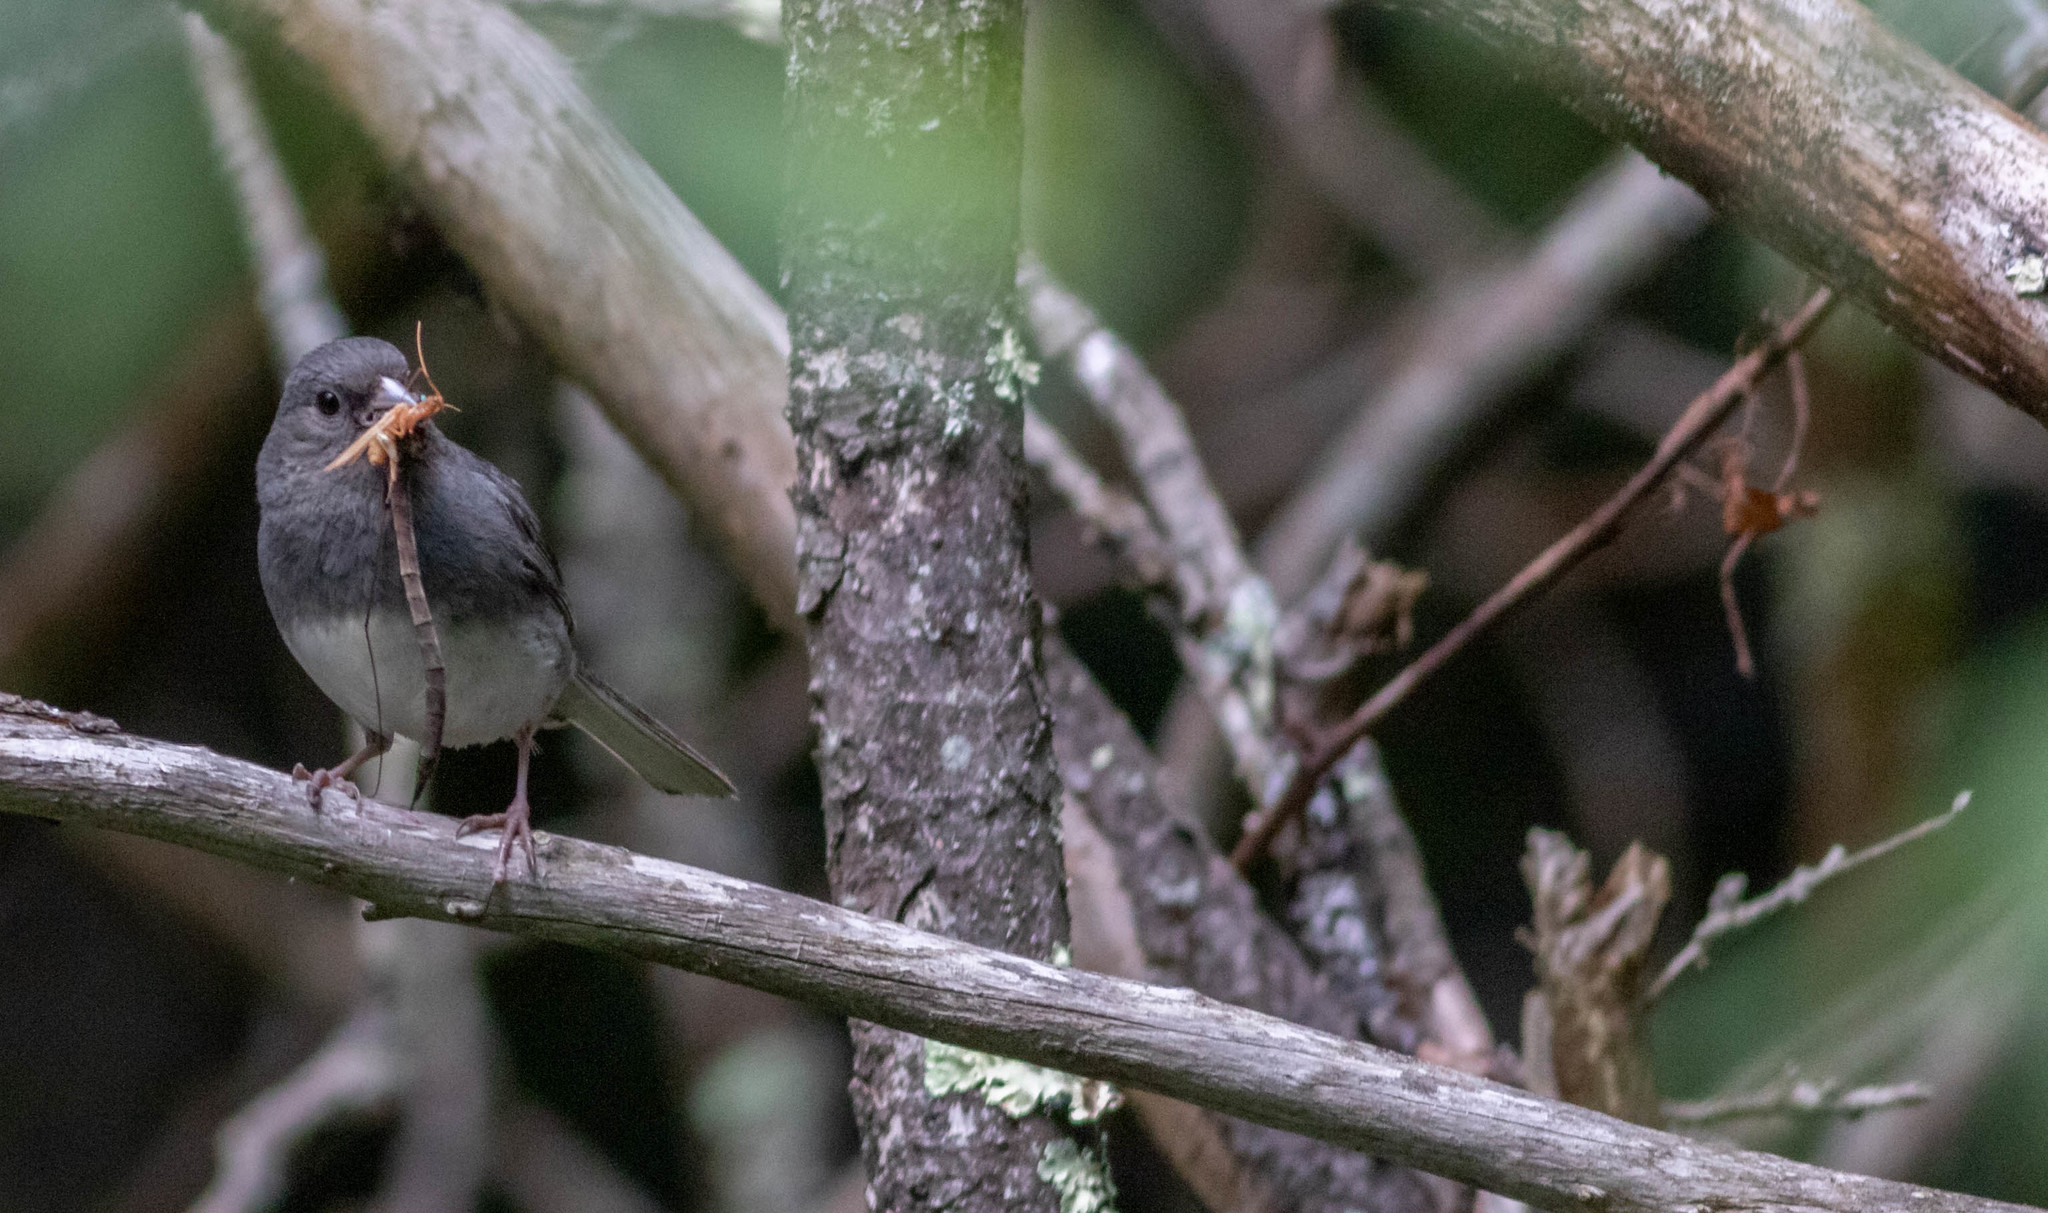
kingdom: Animalia
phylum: Chordata
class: Aves
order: Passeriformes
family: Passerellidae
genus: Junco
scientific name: Junco hyemalis
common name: Dark-eyed junco
